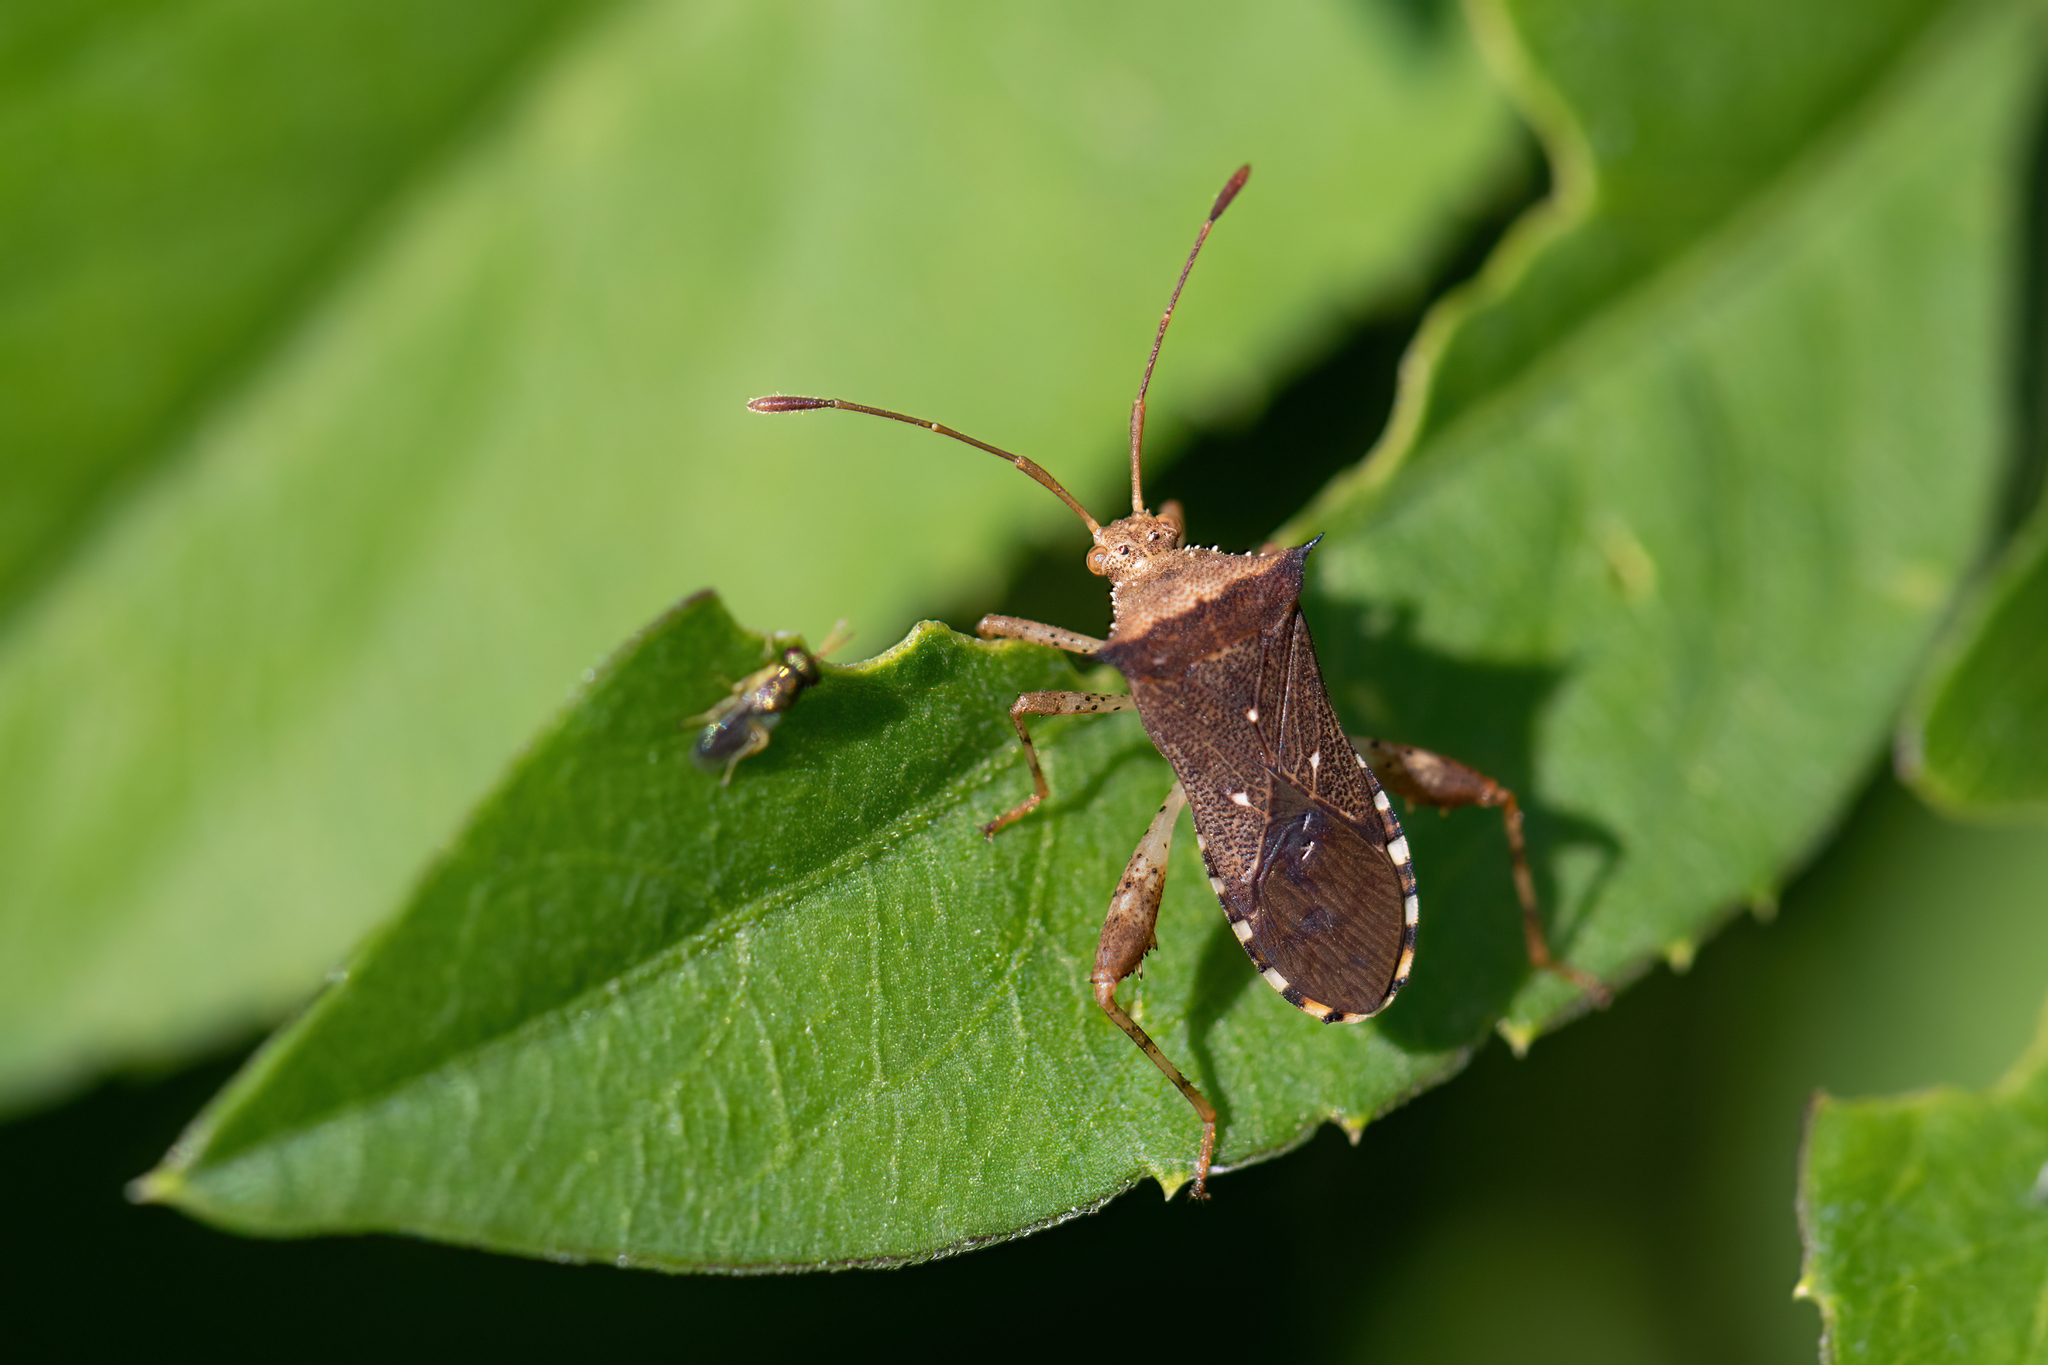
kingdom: Animalia
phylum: Arthropoda
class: Insecta
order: Hemiptera
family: Coreidae
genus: Zicca
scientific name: Zicca taeniola
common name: Leaf-footed bug
